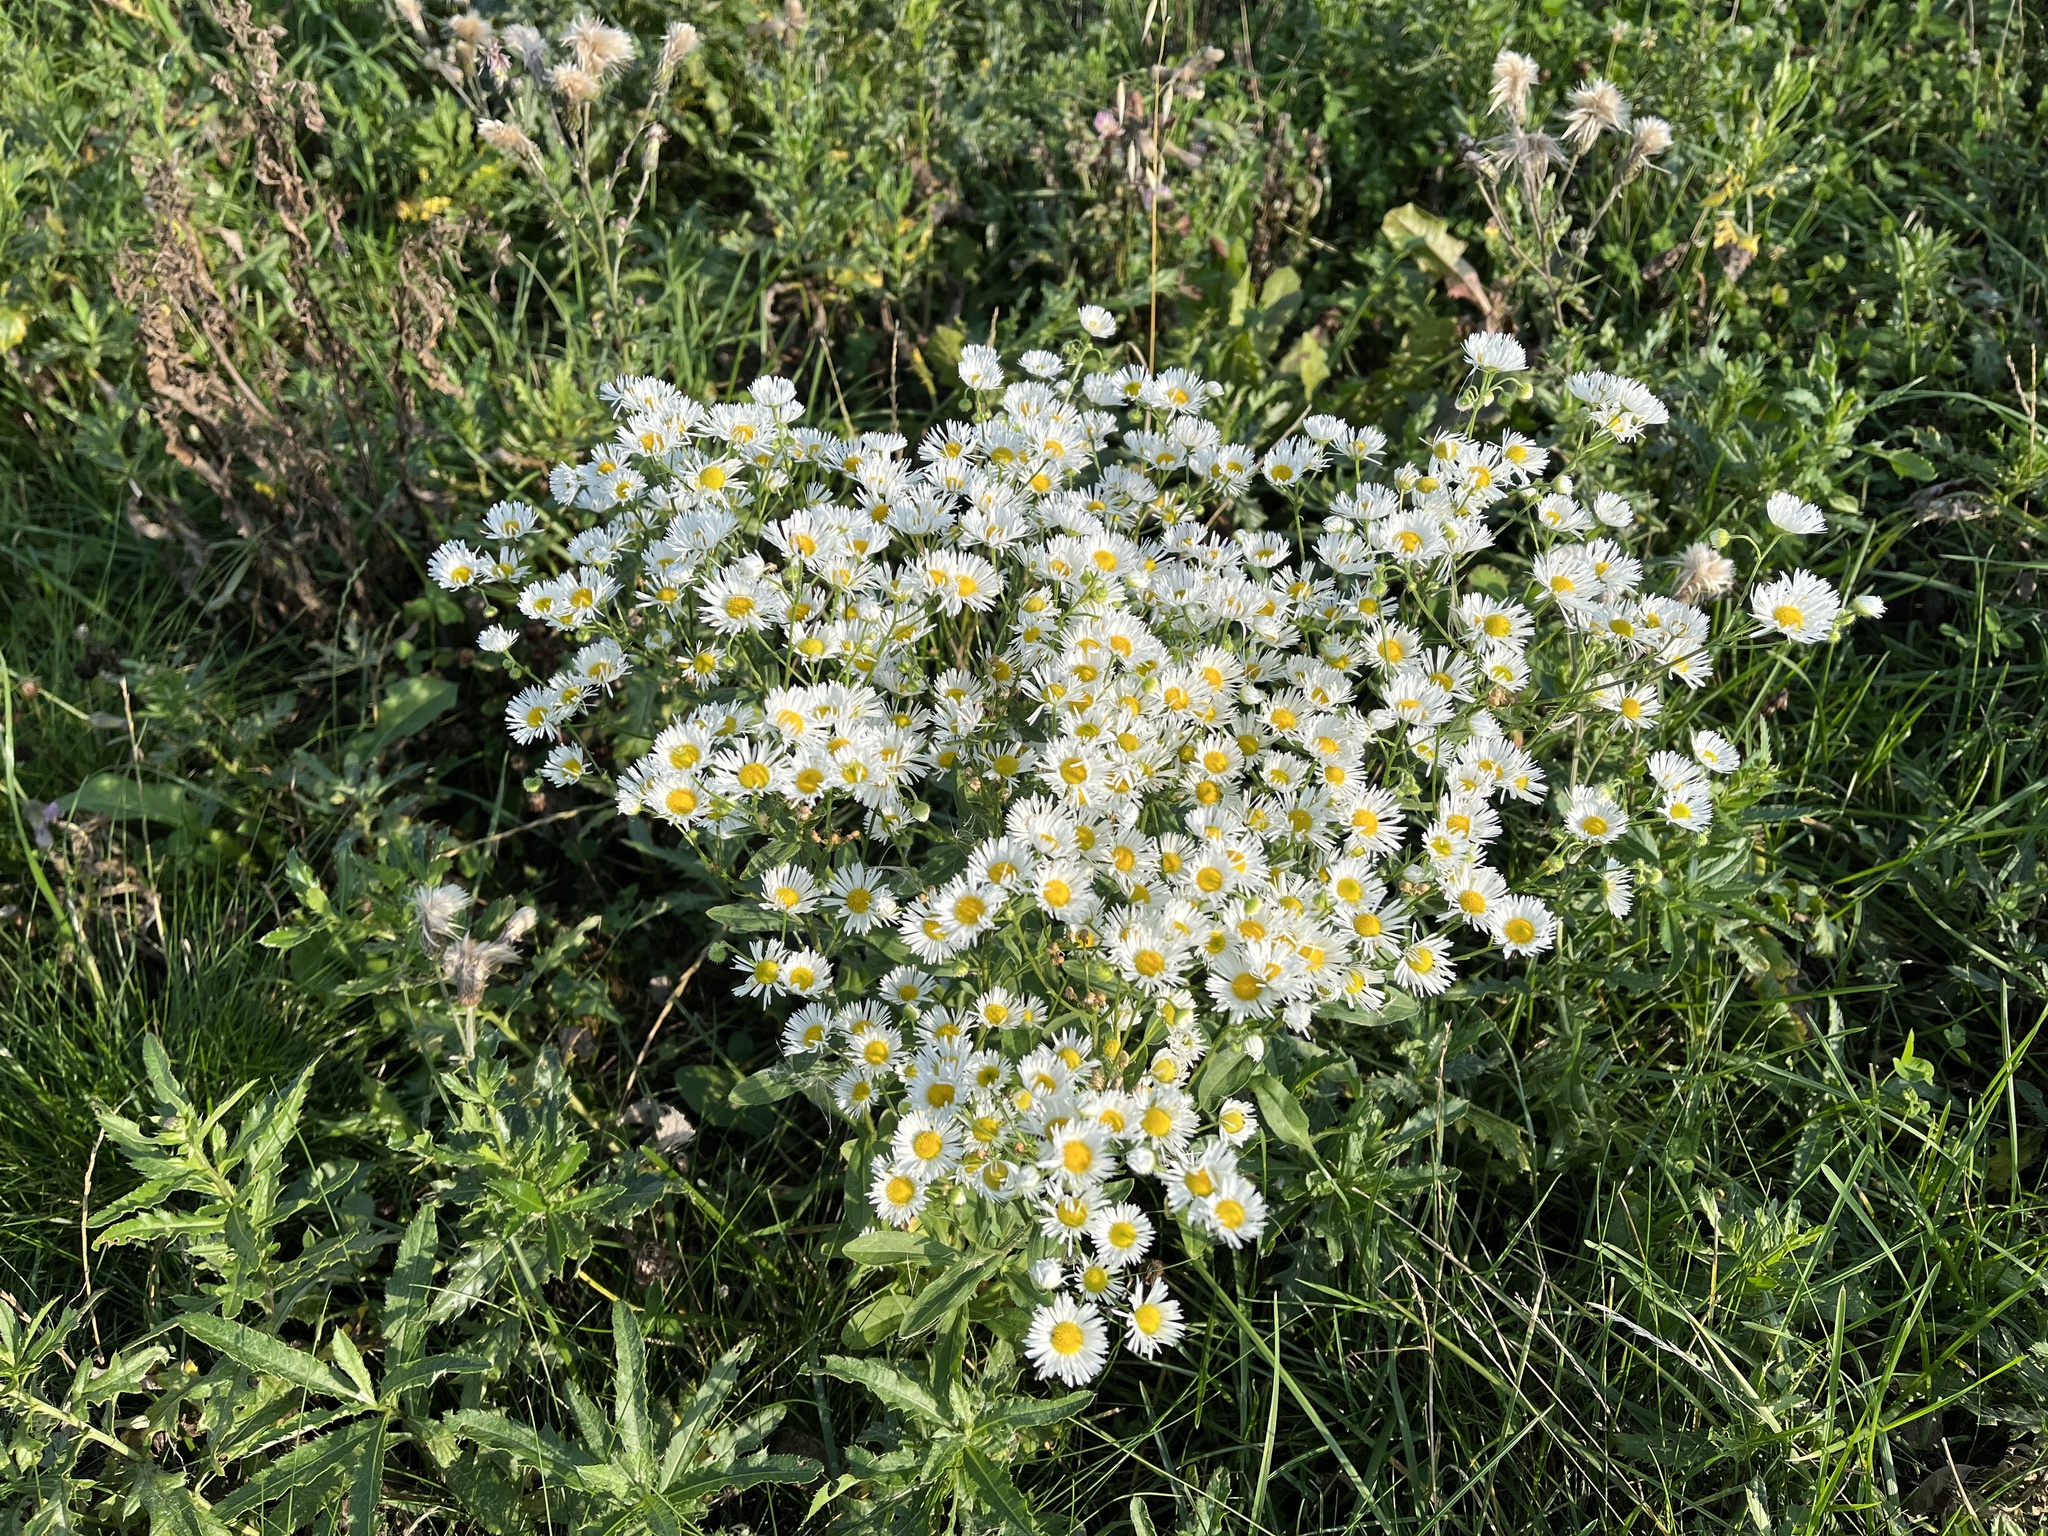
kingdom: Plantae
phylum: Tracheophyta
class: Magnoliopsida
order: Asterales
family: Asteraceae
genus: Erigeron
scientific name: Erigeron annuus
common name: Tall fleabane
